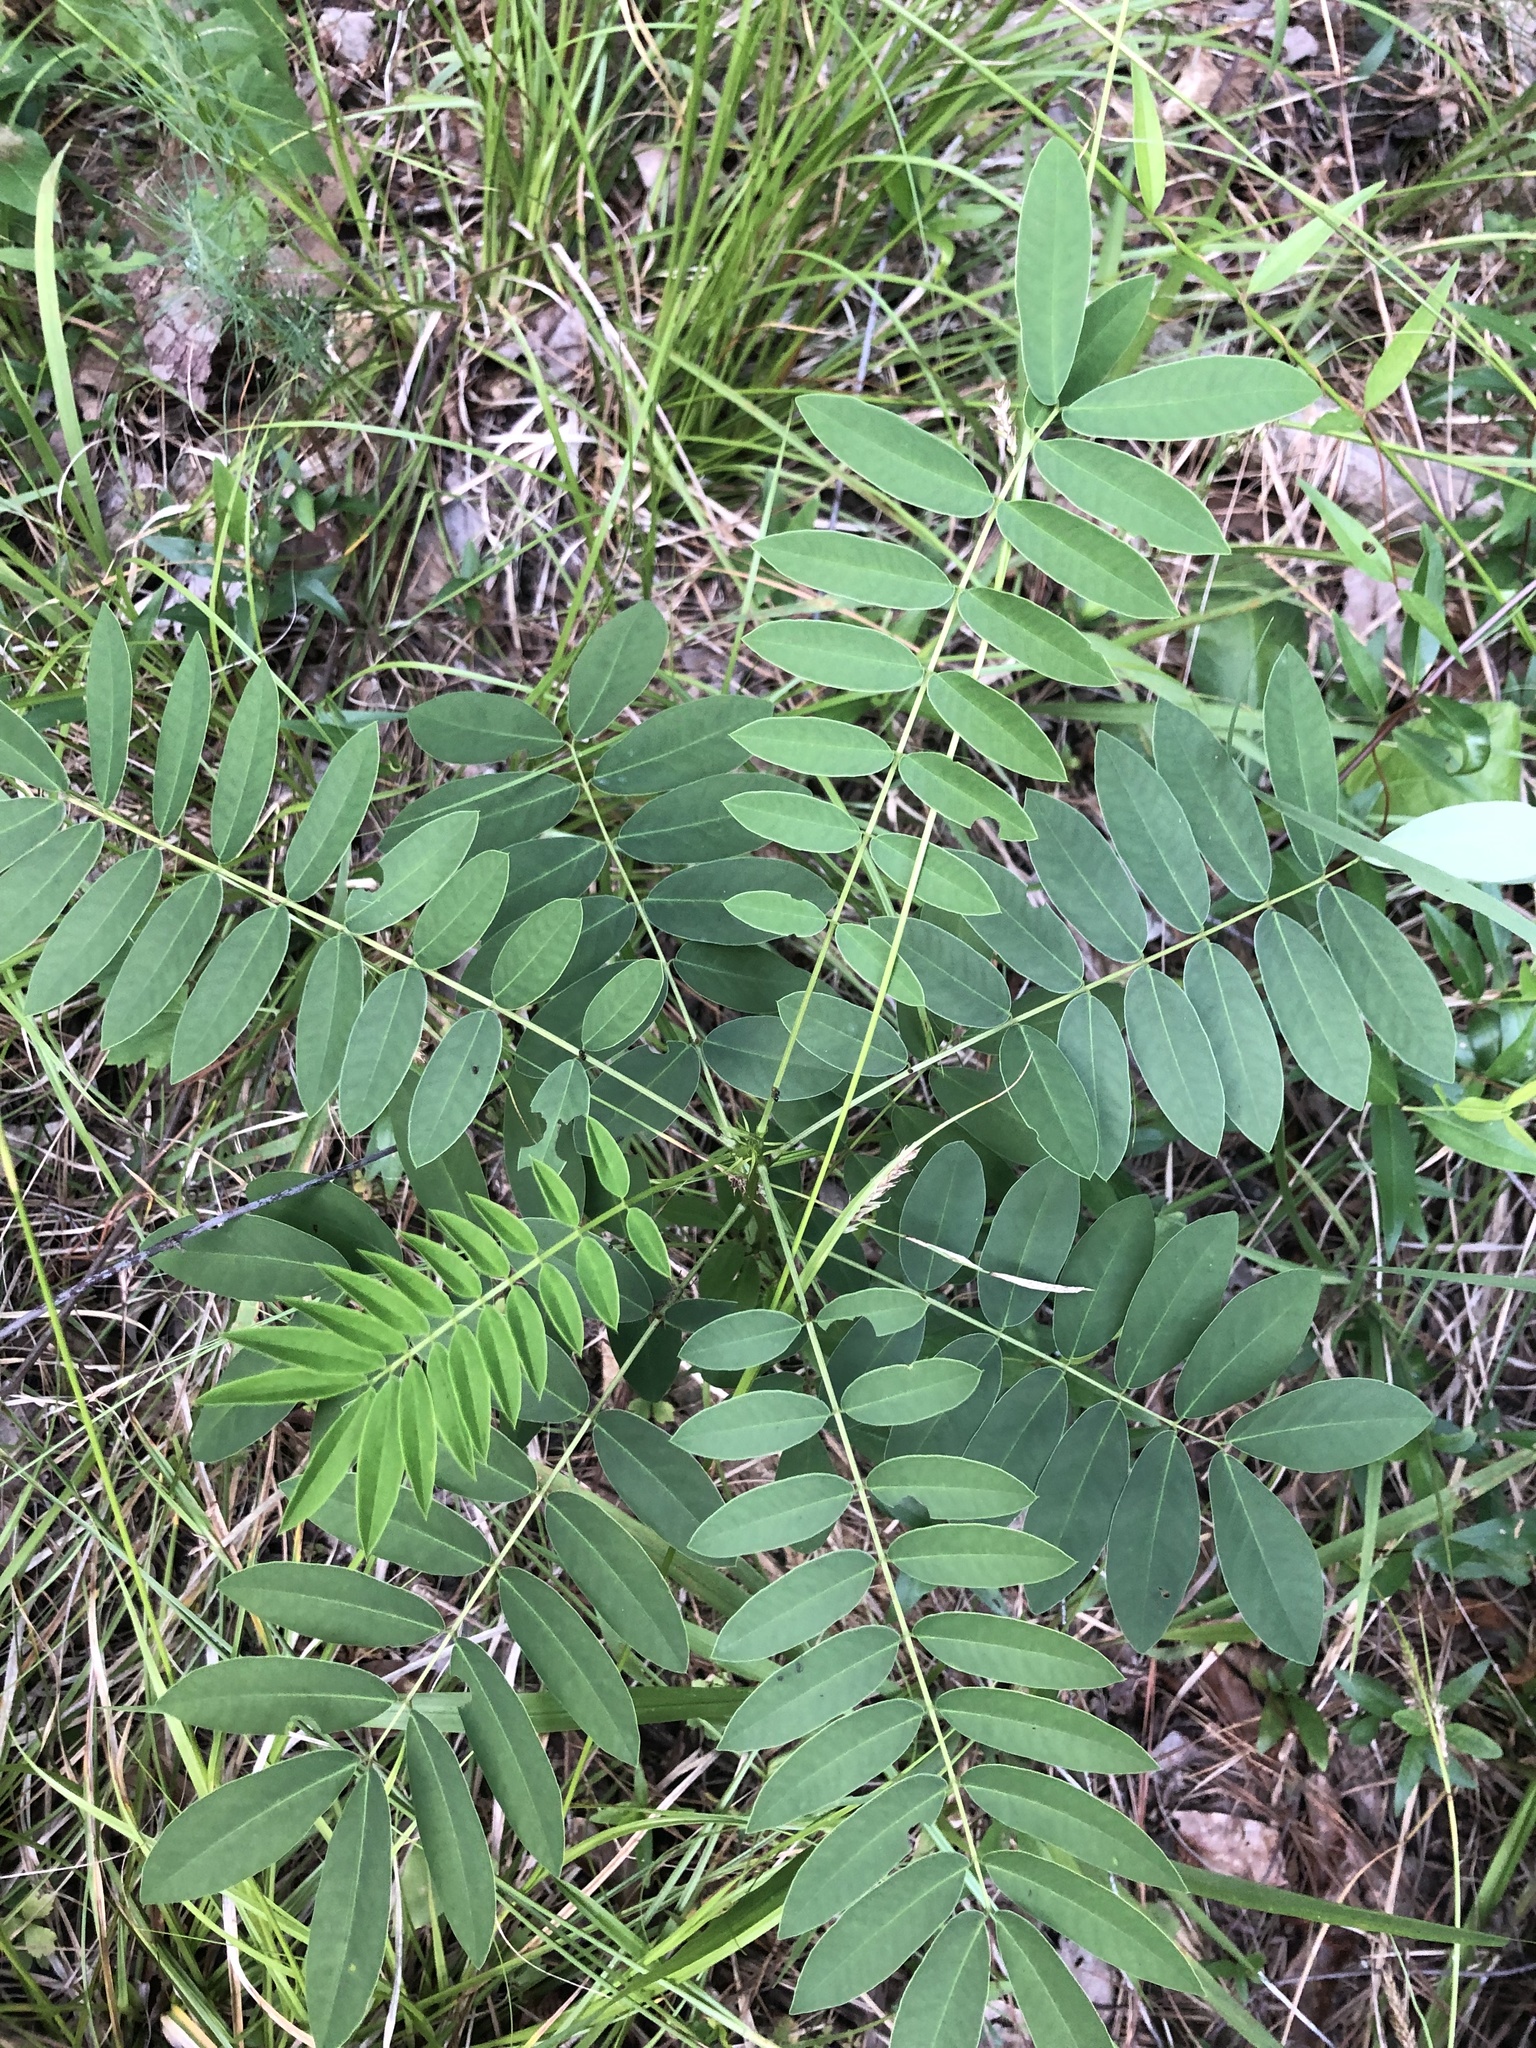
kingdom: Plantae
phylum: Tracheophyta
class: Magnoliopsida
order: Fabales
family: Fabaceae
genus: Senna
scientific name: Senna marilandica
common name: American senna
